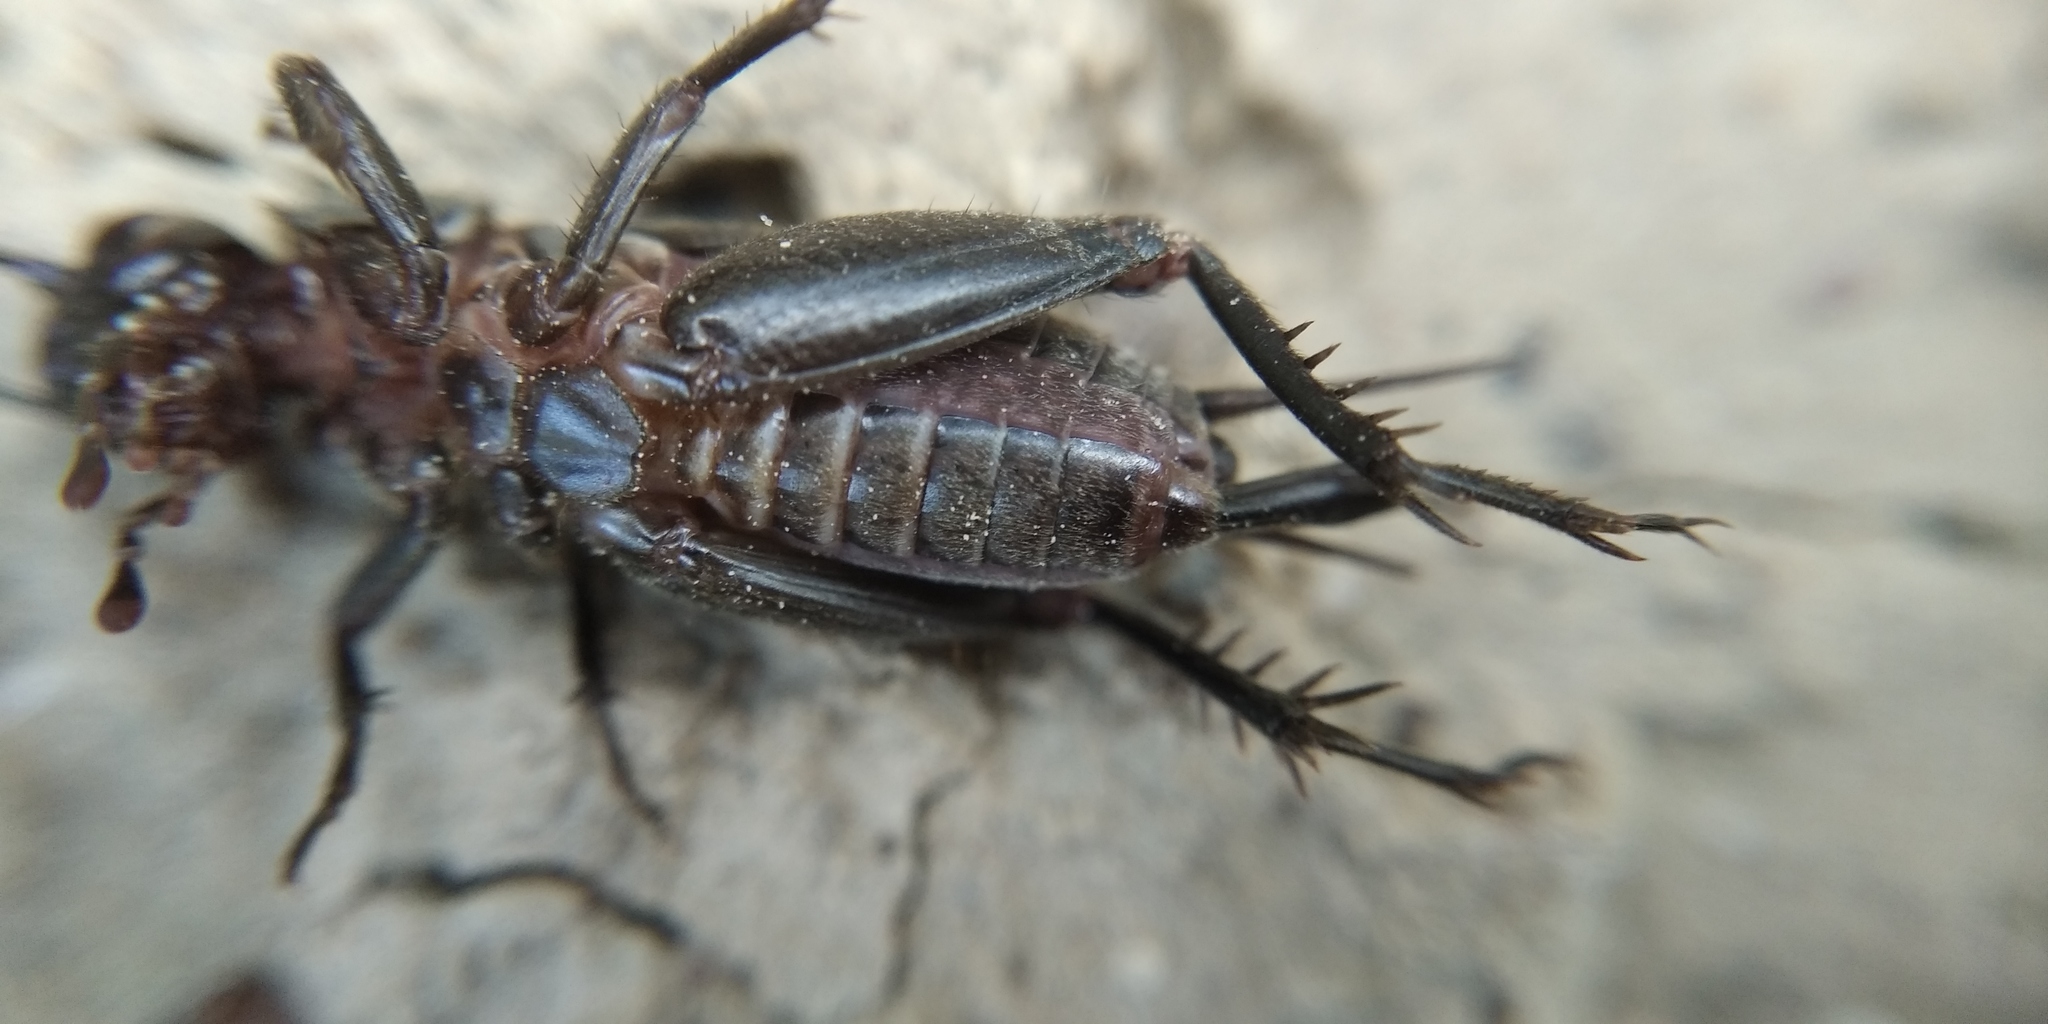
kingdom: Animalia
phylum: Arthropoda
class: Insecta
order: Orthoptera
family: Gryllidae
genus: Modicogryllus
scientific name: Modicogryllus frontalis
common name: Eastern cricket
